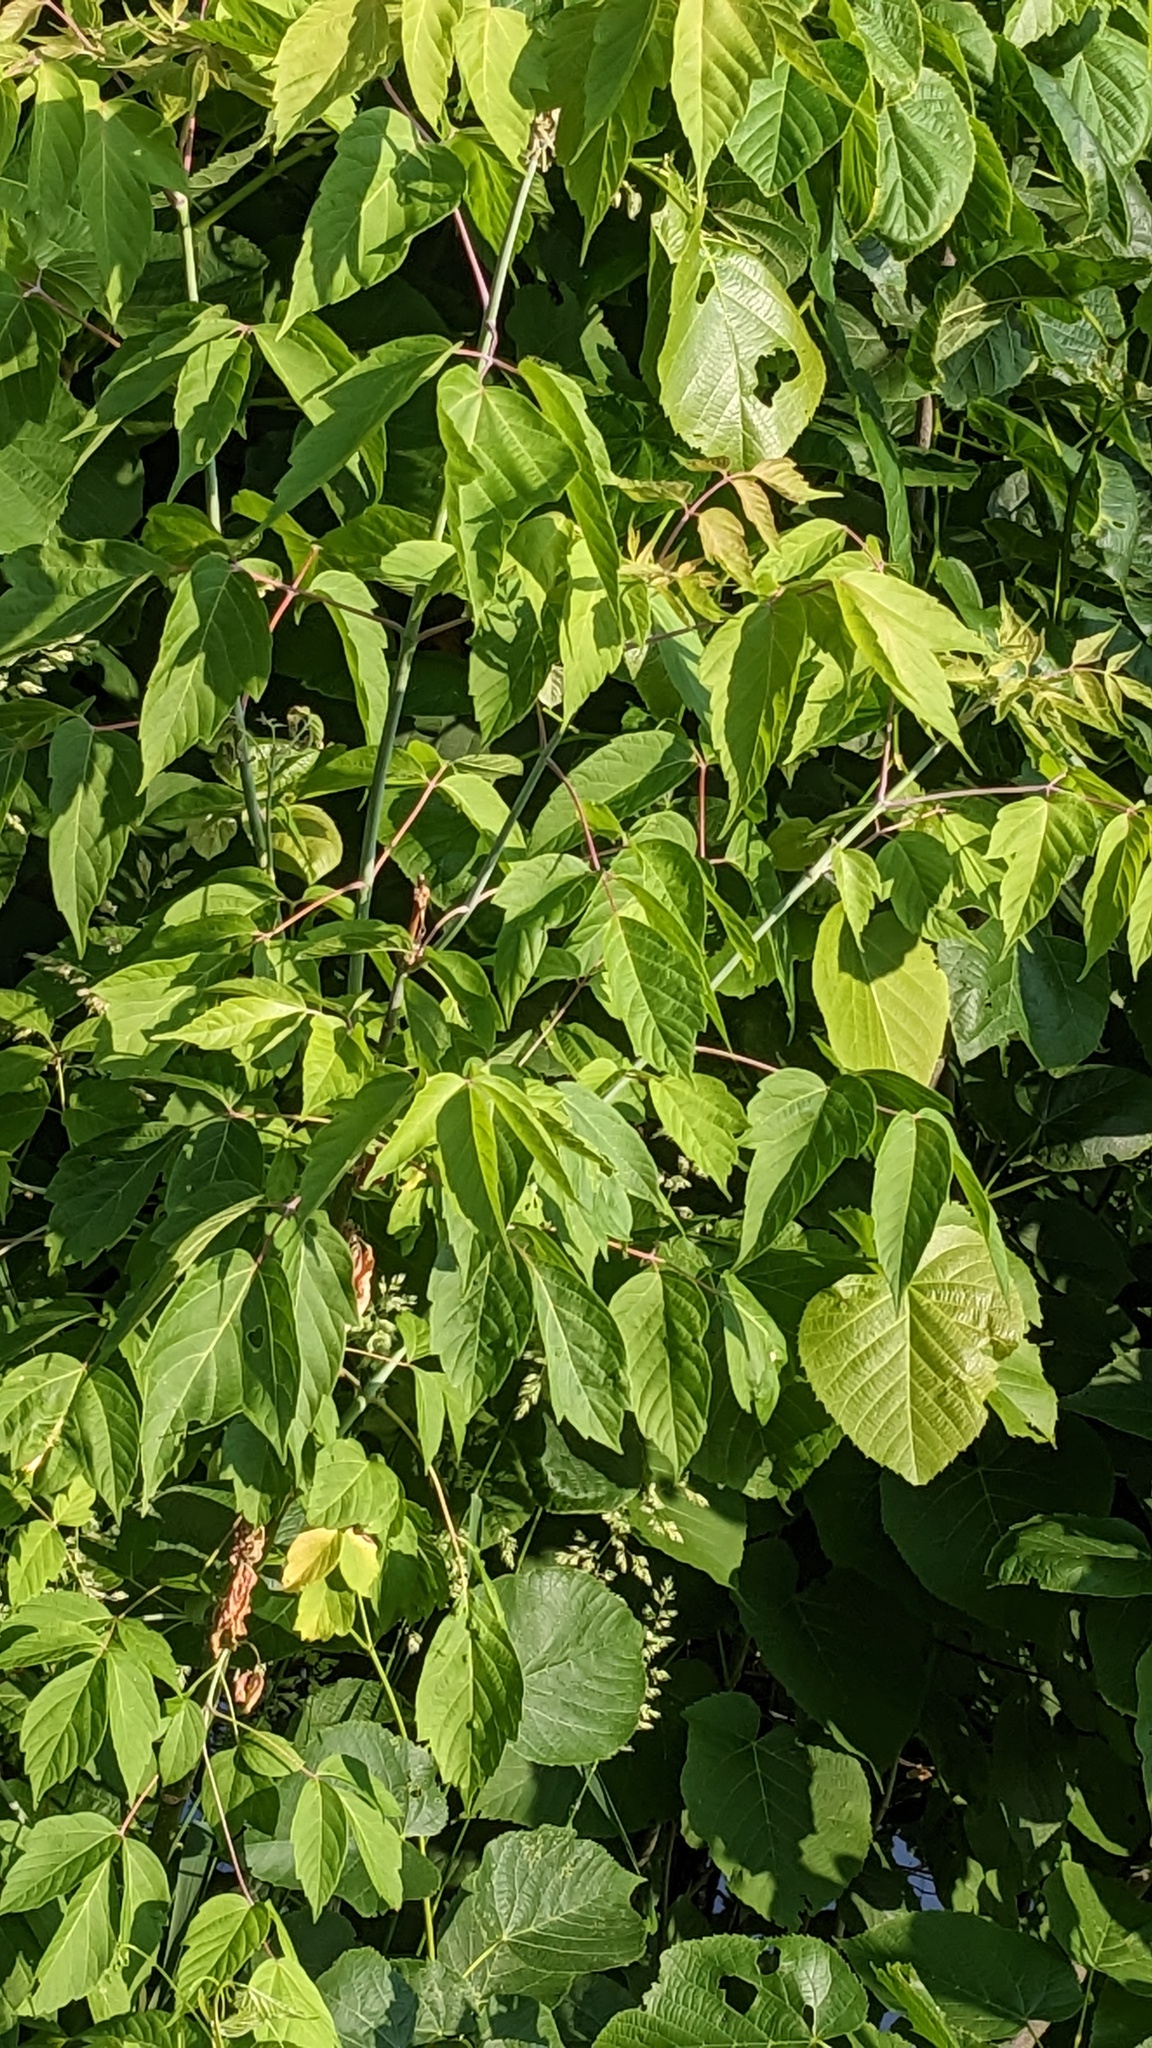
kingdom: Plantae
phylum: Tracheophyta
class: Magnoliopsida
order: Sapindales
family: Sapindaceae
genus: Acer
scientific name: Acer negundo
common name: Ashleaf maple
